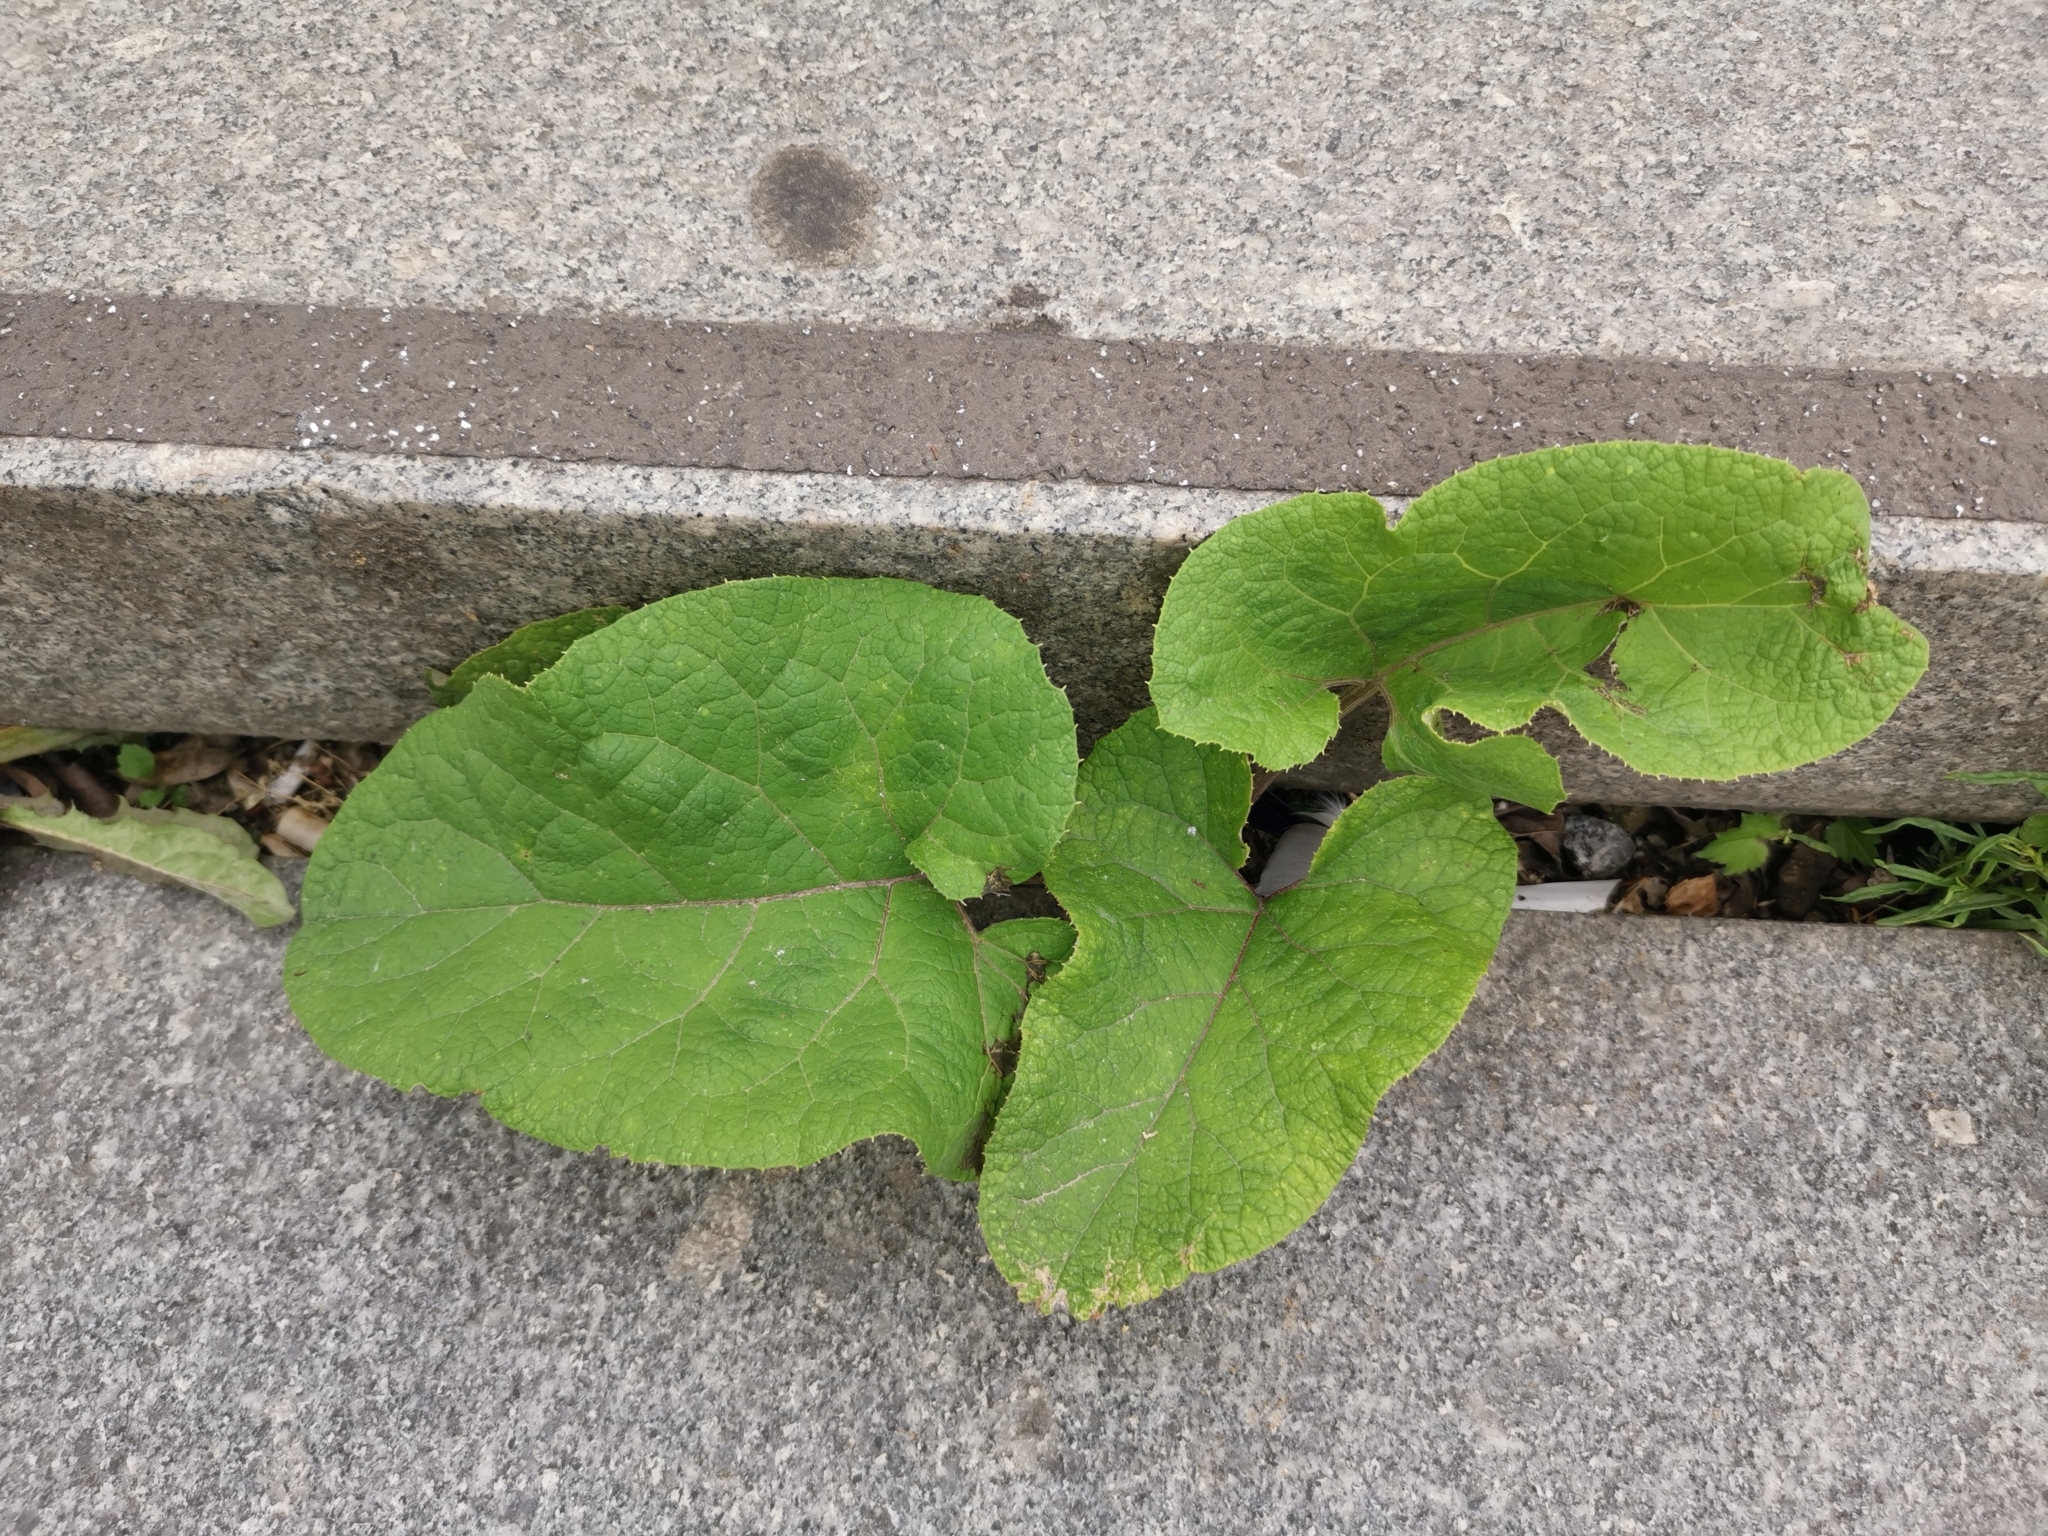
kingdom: Plantae
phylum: Tracheophyta
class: Magnoliopsida
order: Asterales
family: Asteraceae
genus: Arctium
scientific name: Arctium
